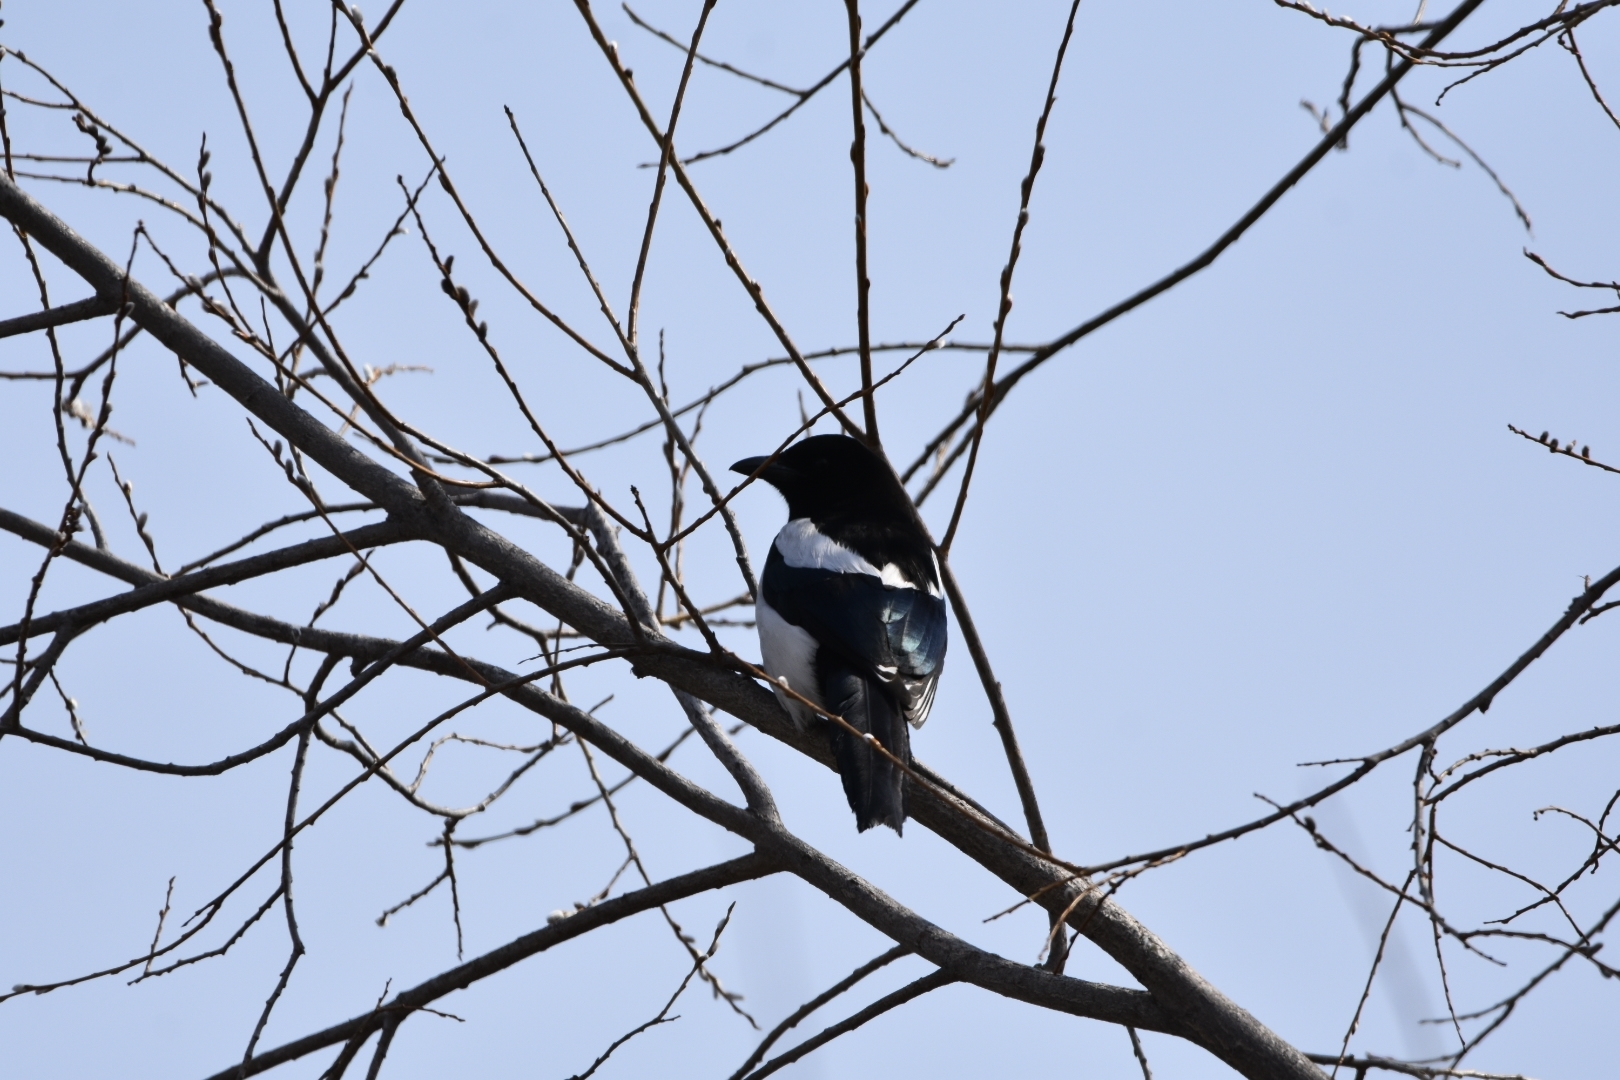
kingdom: Animalia
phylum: Chordata
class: Aves
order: Passeriformes
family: Corvidae
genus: Pica
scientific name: Pica pica
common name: Eurasian magpie
